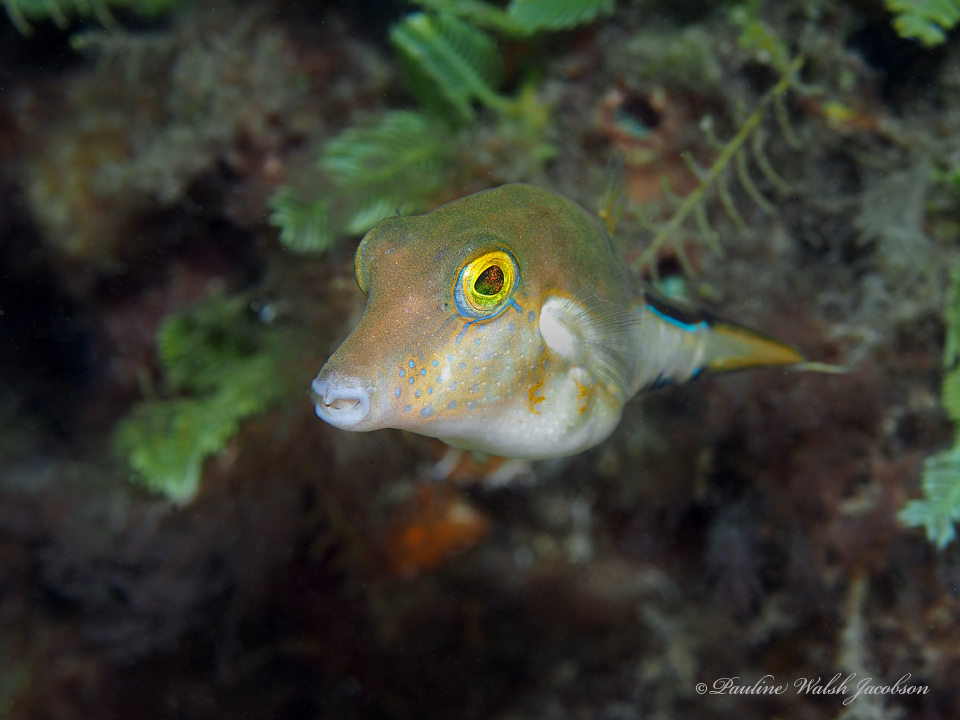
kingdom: Animalia
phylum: Chordata
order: Tetraodontiformes
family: Tetraodontidae
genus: Canthigaster
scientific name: Canthigaster rostrata
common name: Caribbean sharpnose-puffer
